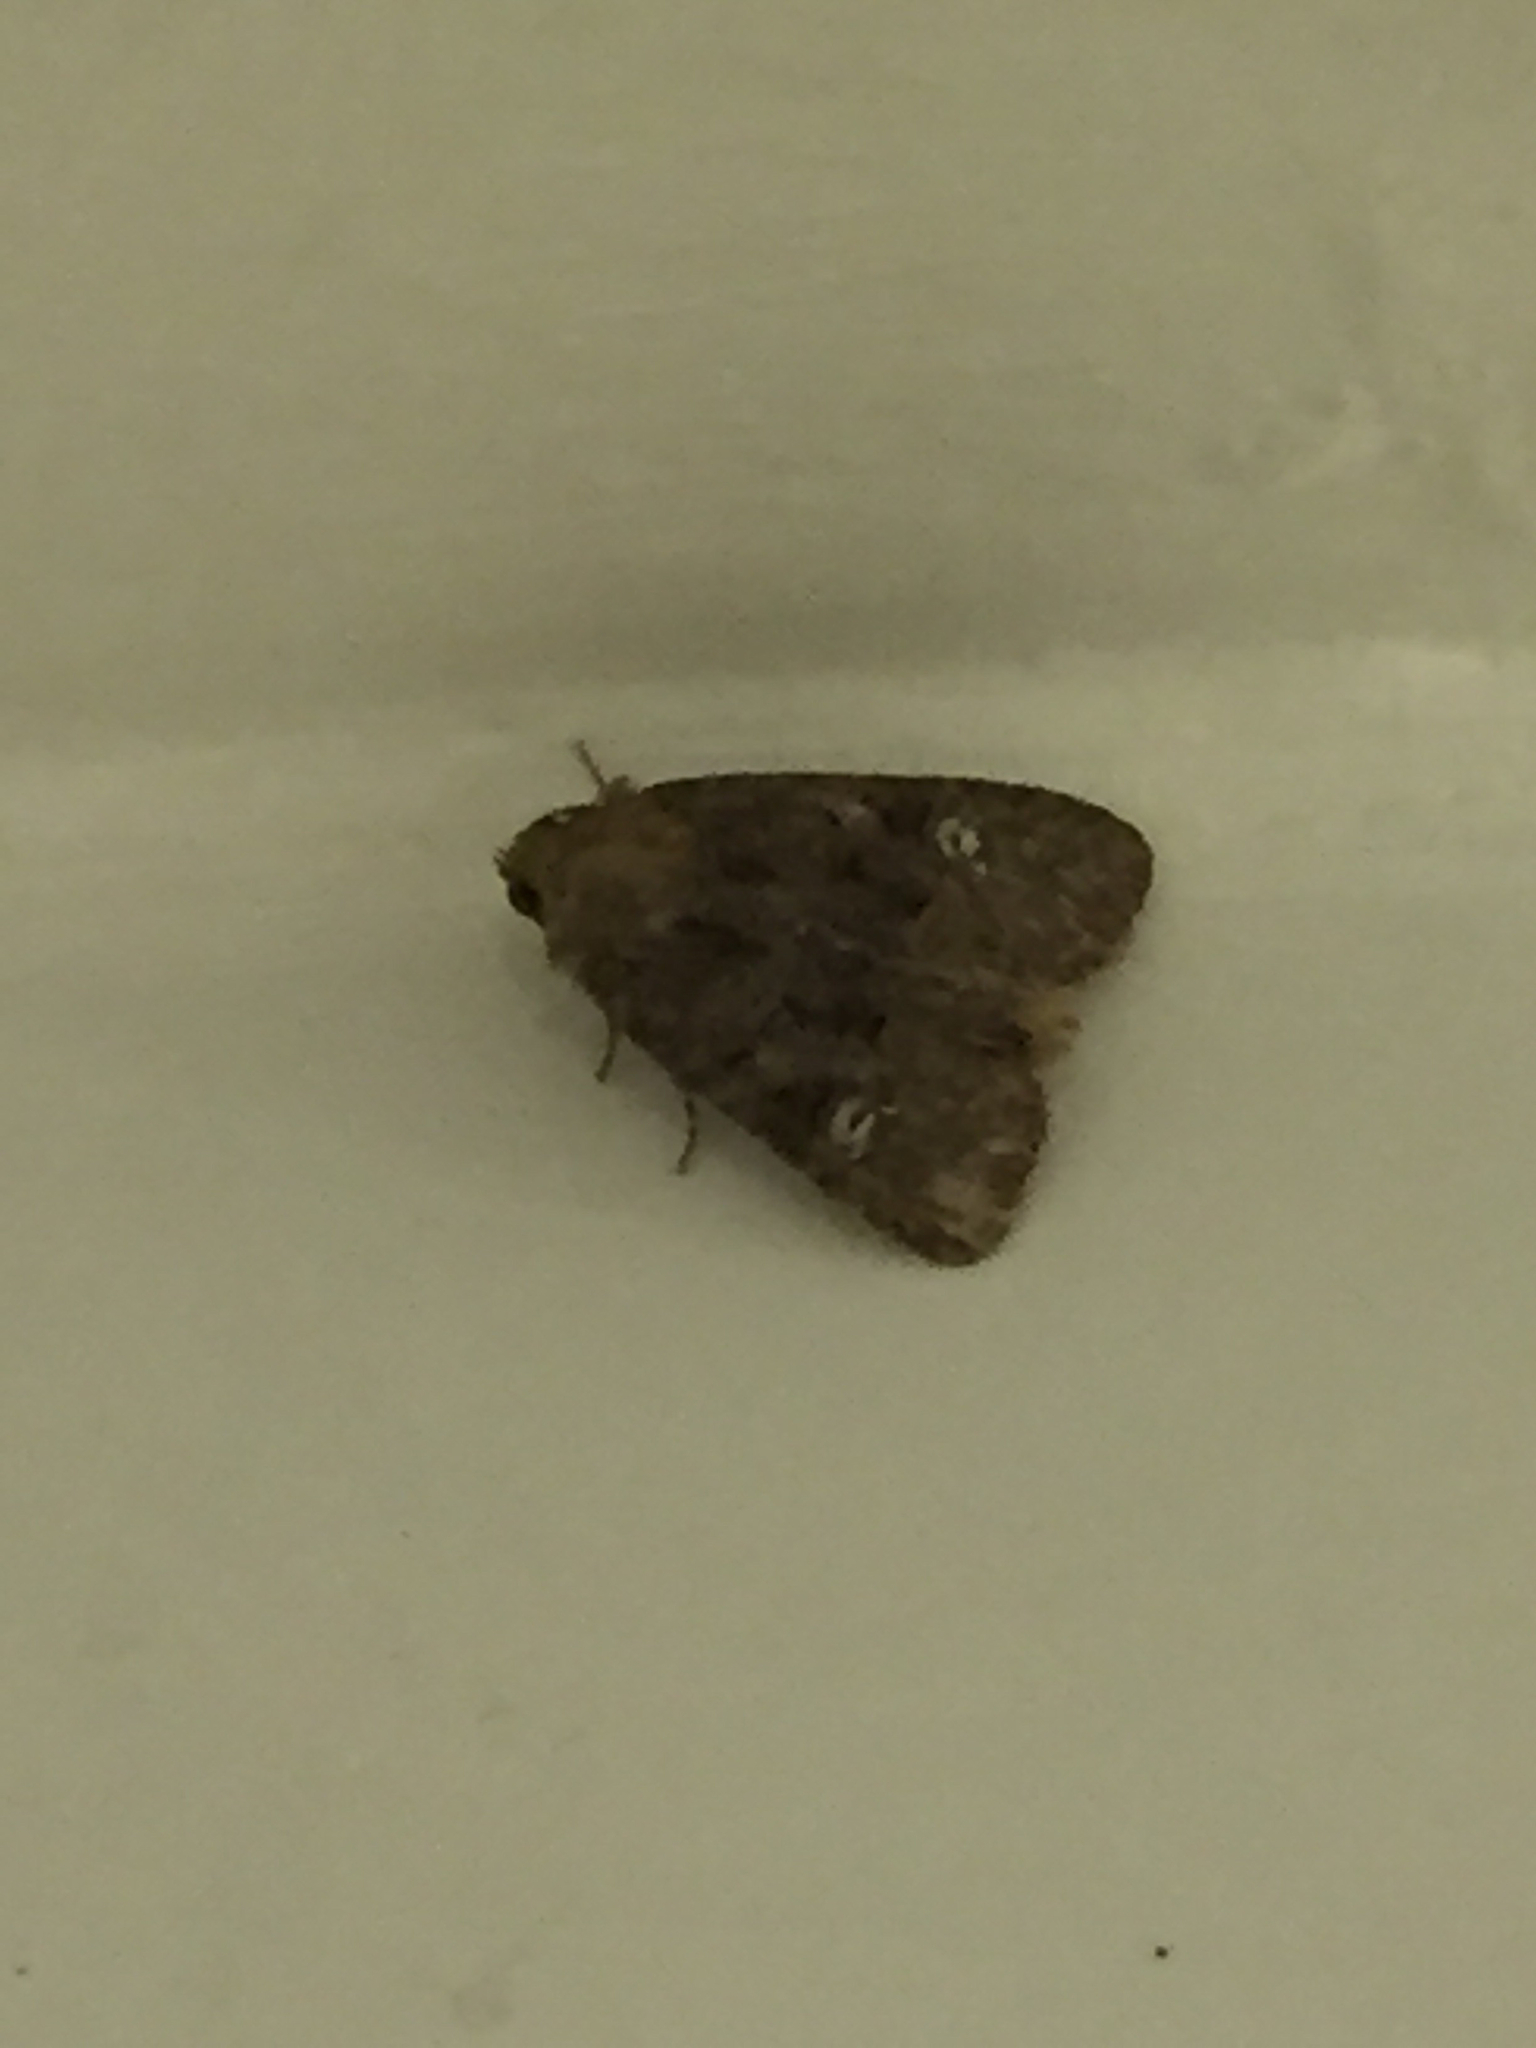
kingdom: Animalia
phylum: Arthropoda
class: Insecta
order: Lepidoptera
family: Noctuidae
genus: Mesapamea
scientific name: Mesapamea
